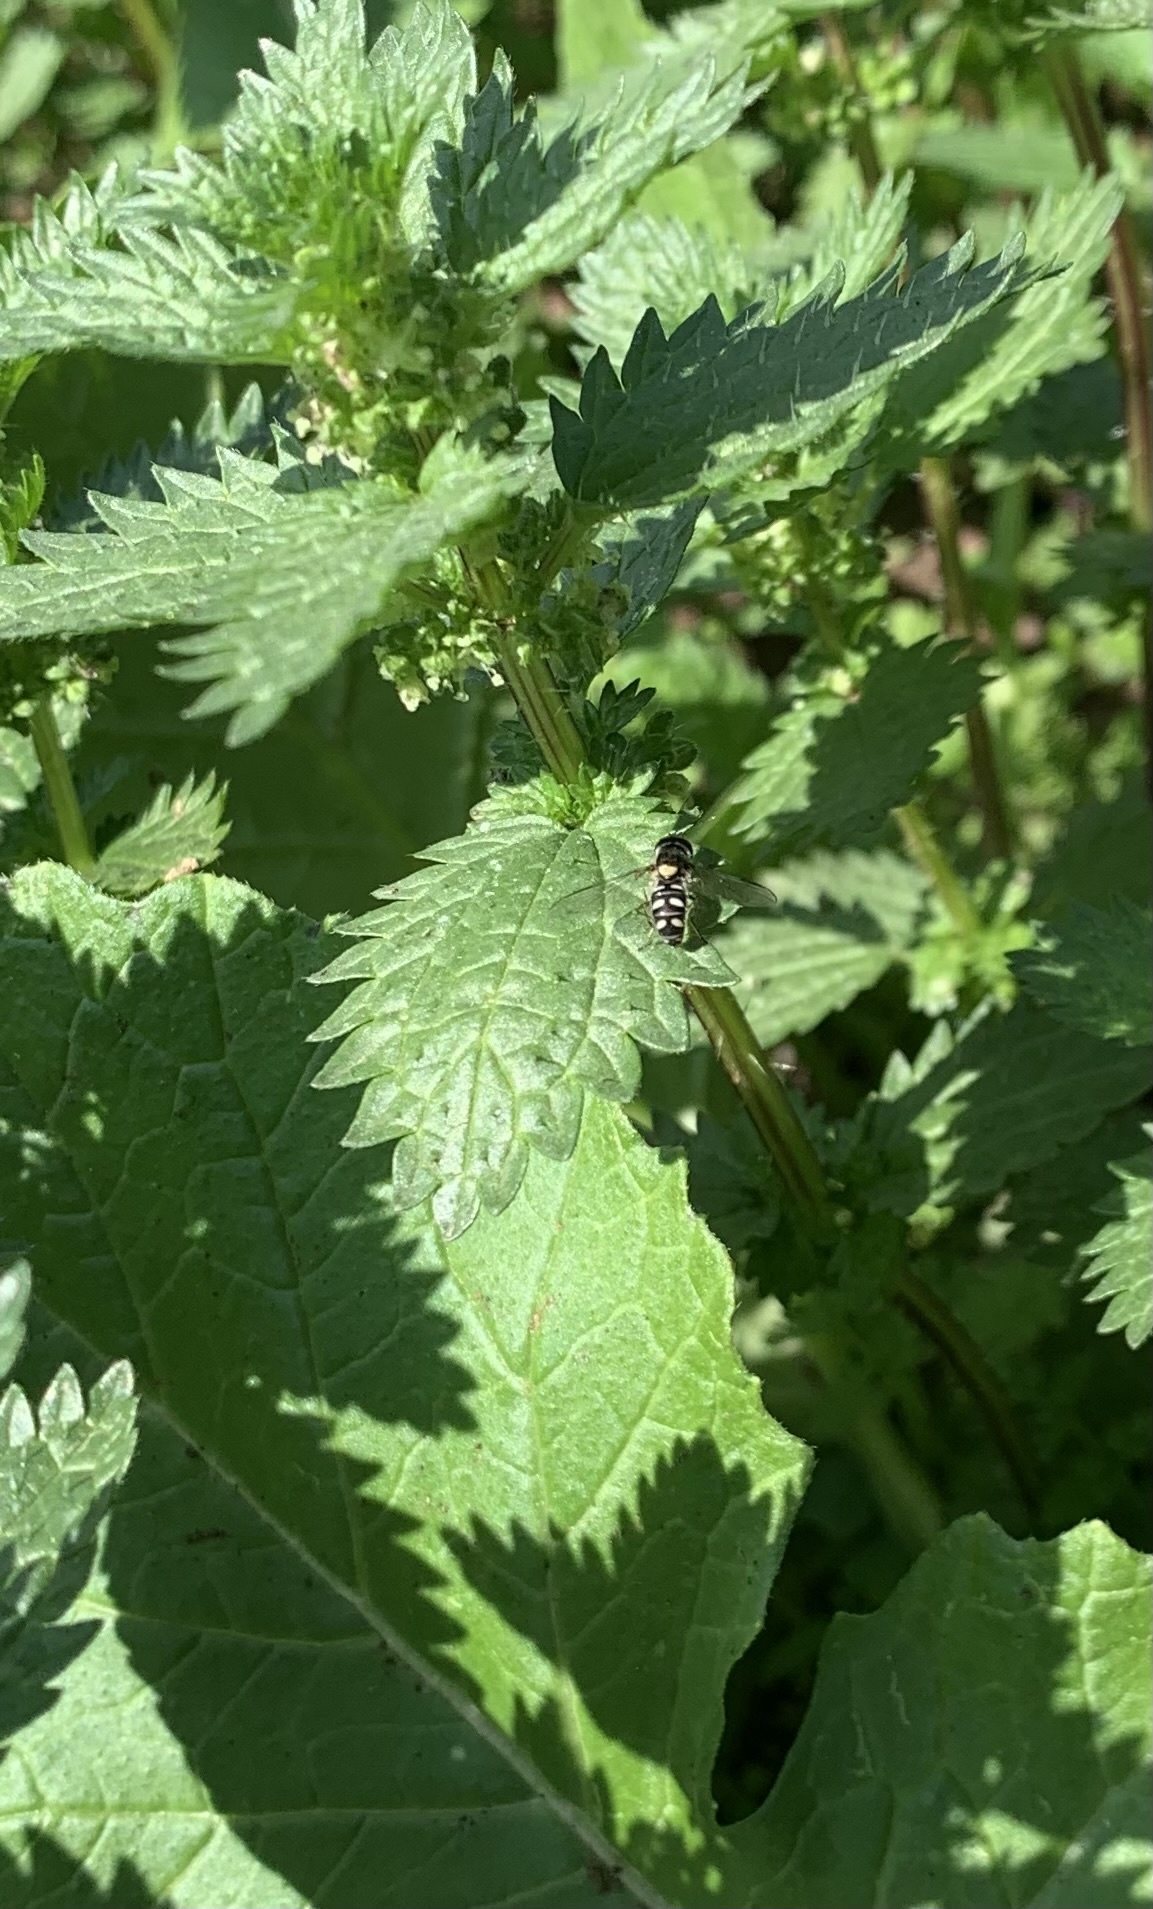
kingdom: Animalia
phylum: Arthropoda
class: Insecta
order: Diptera
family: Syrphidae
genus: Allograpta
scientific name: Allograpta hortensis
